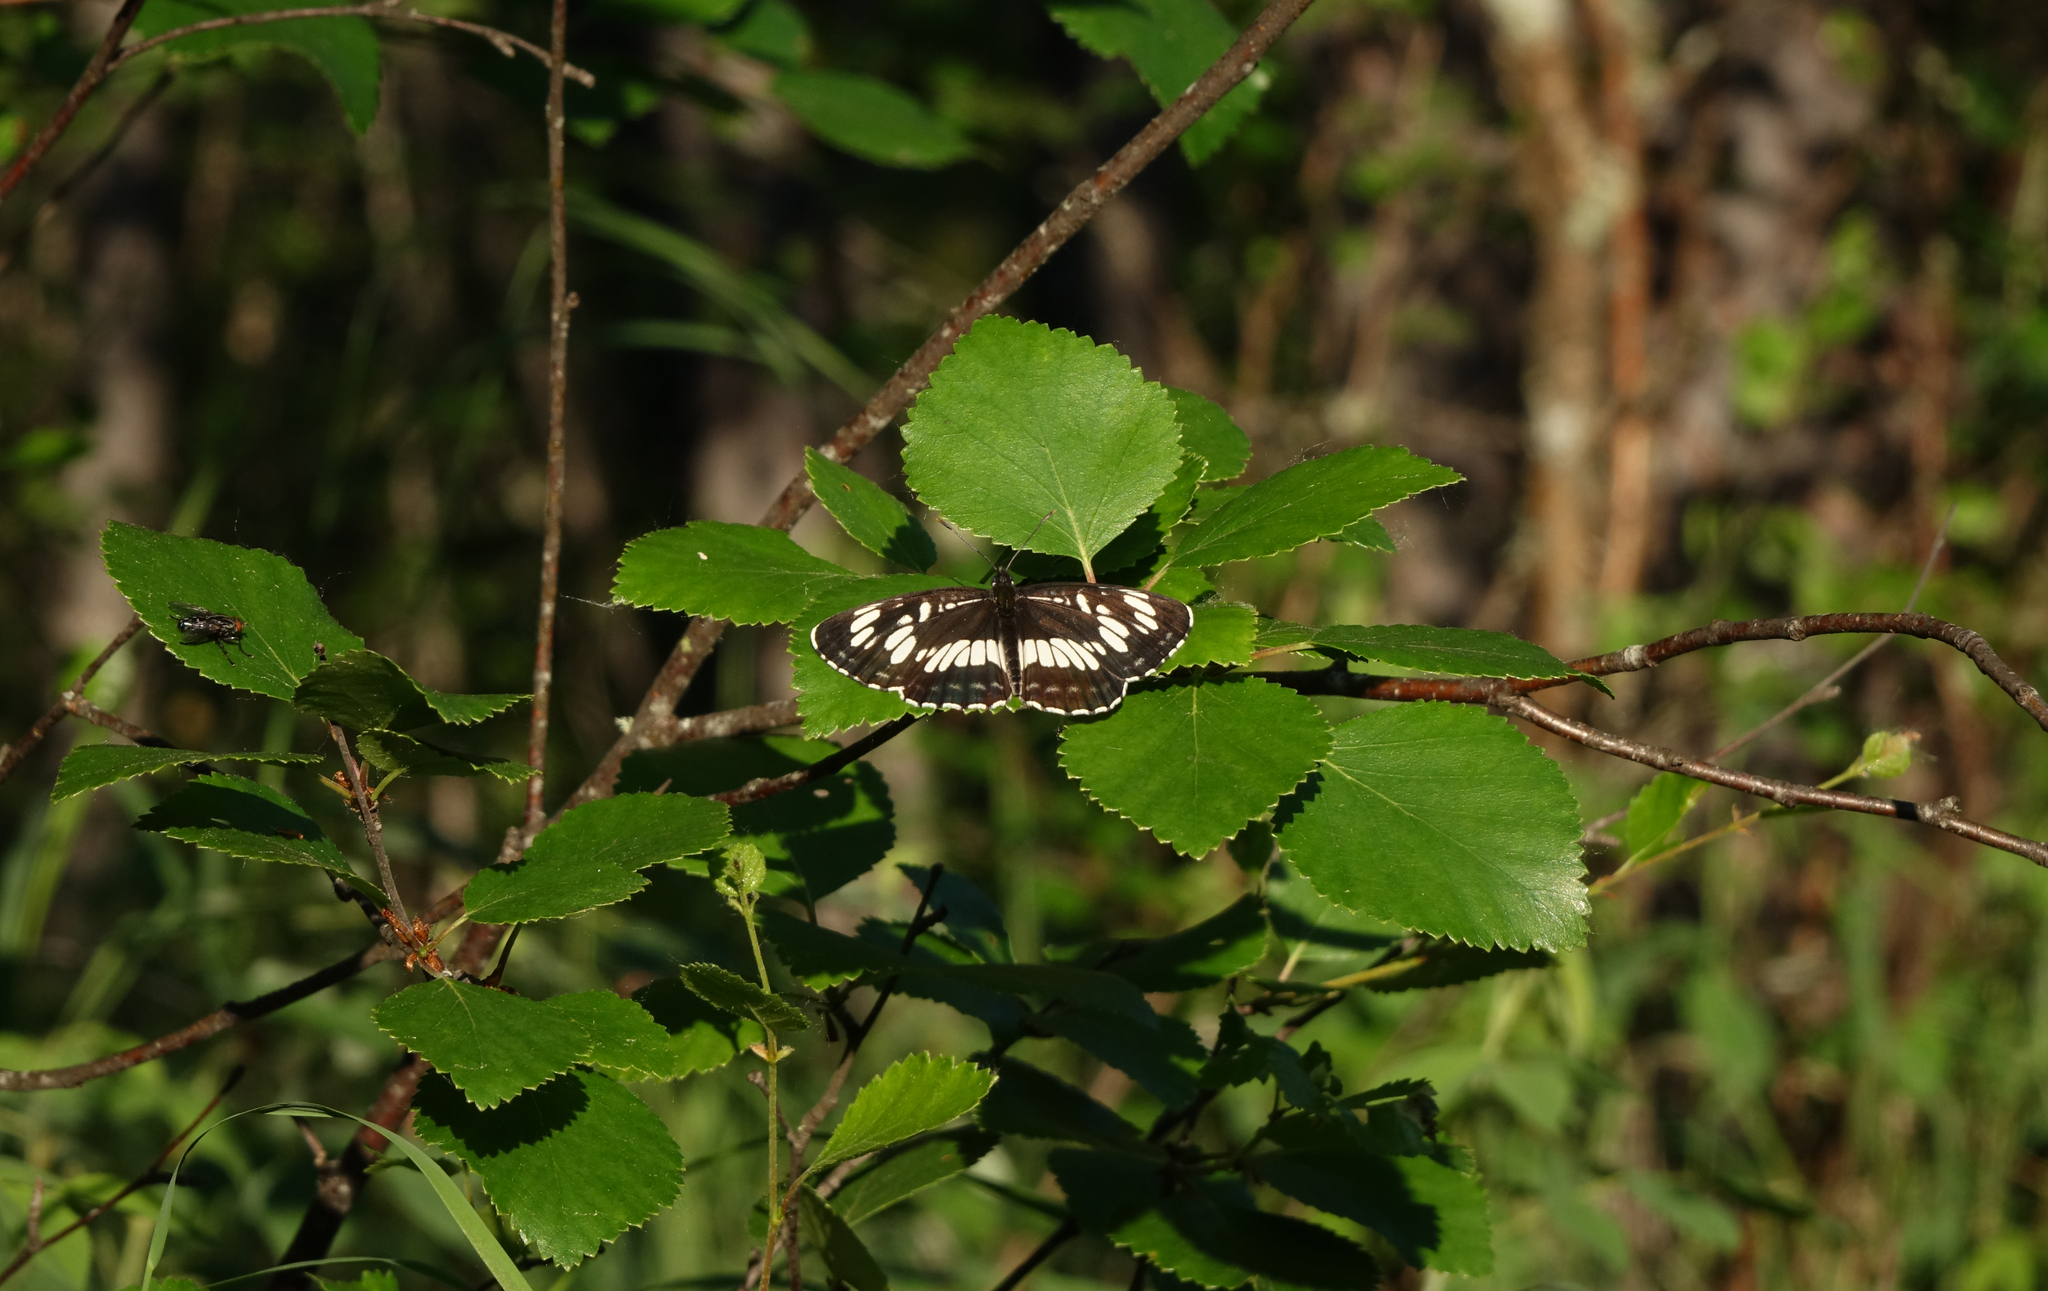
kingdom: Animalia
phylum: Arthropoda
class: Insecta
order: Lepidoptera
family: Nymphalidae
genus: Neptis
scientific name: Neptis rivularis
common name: Hungarian glider
